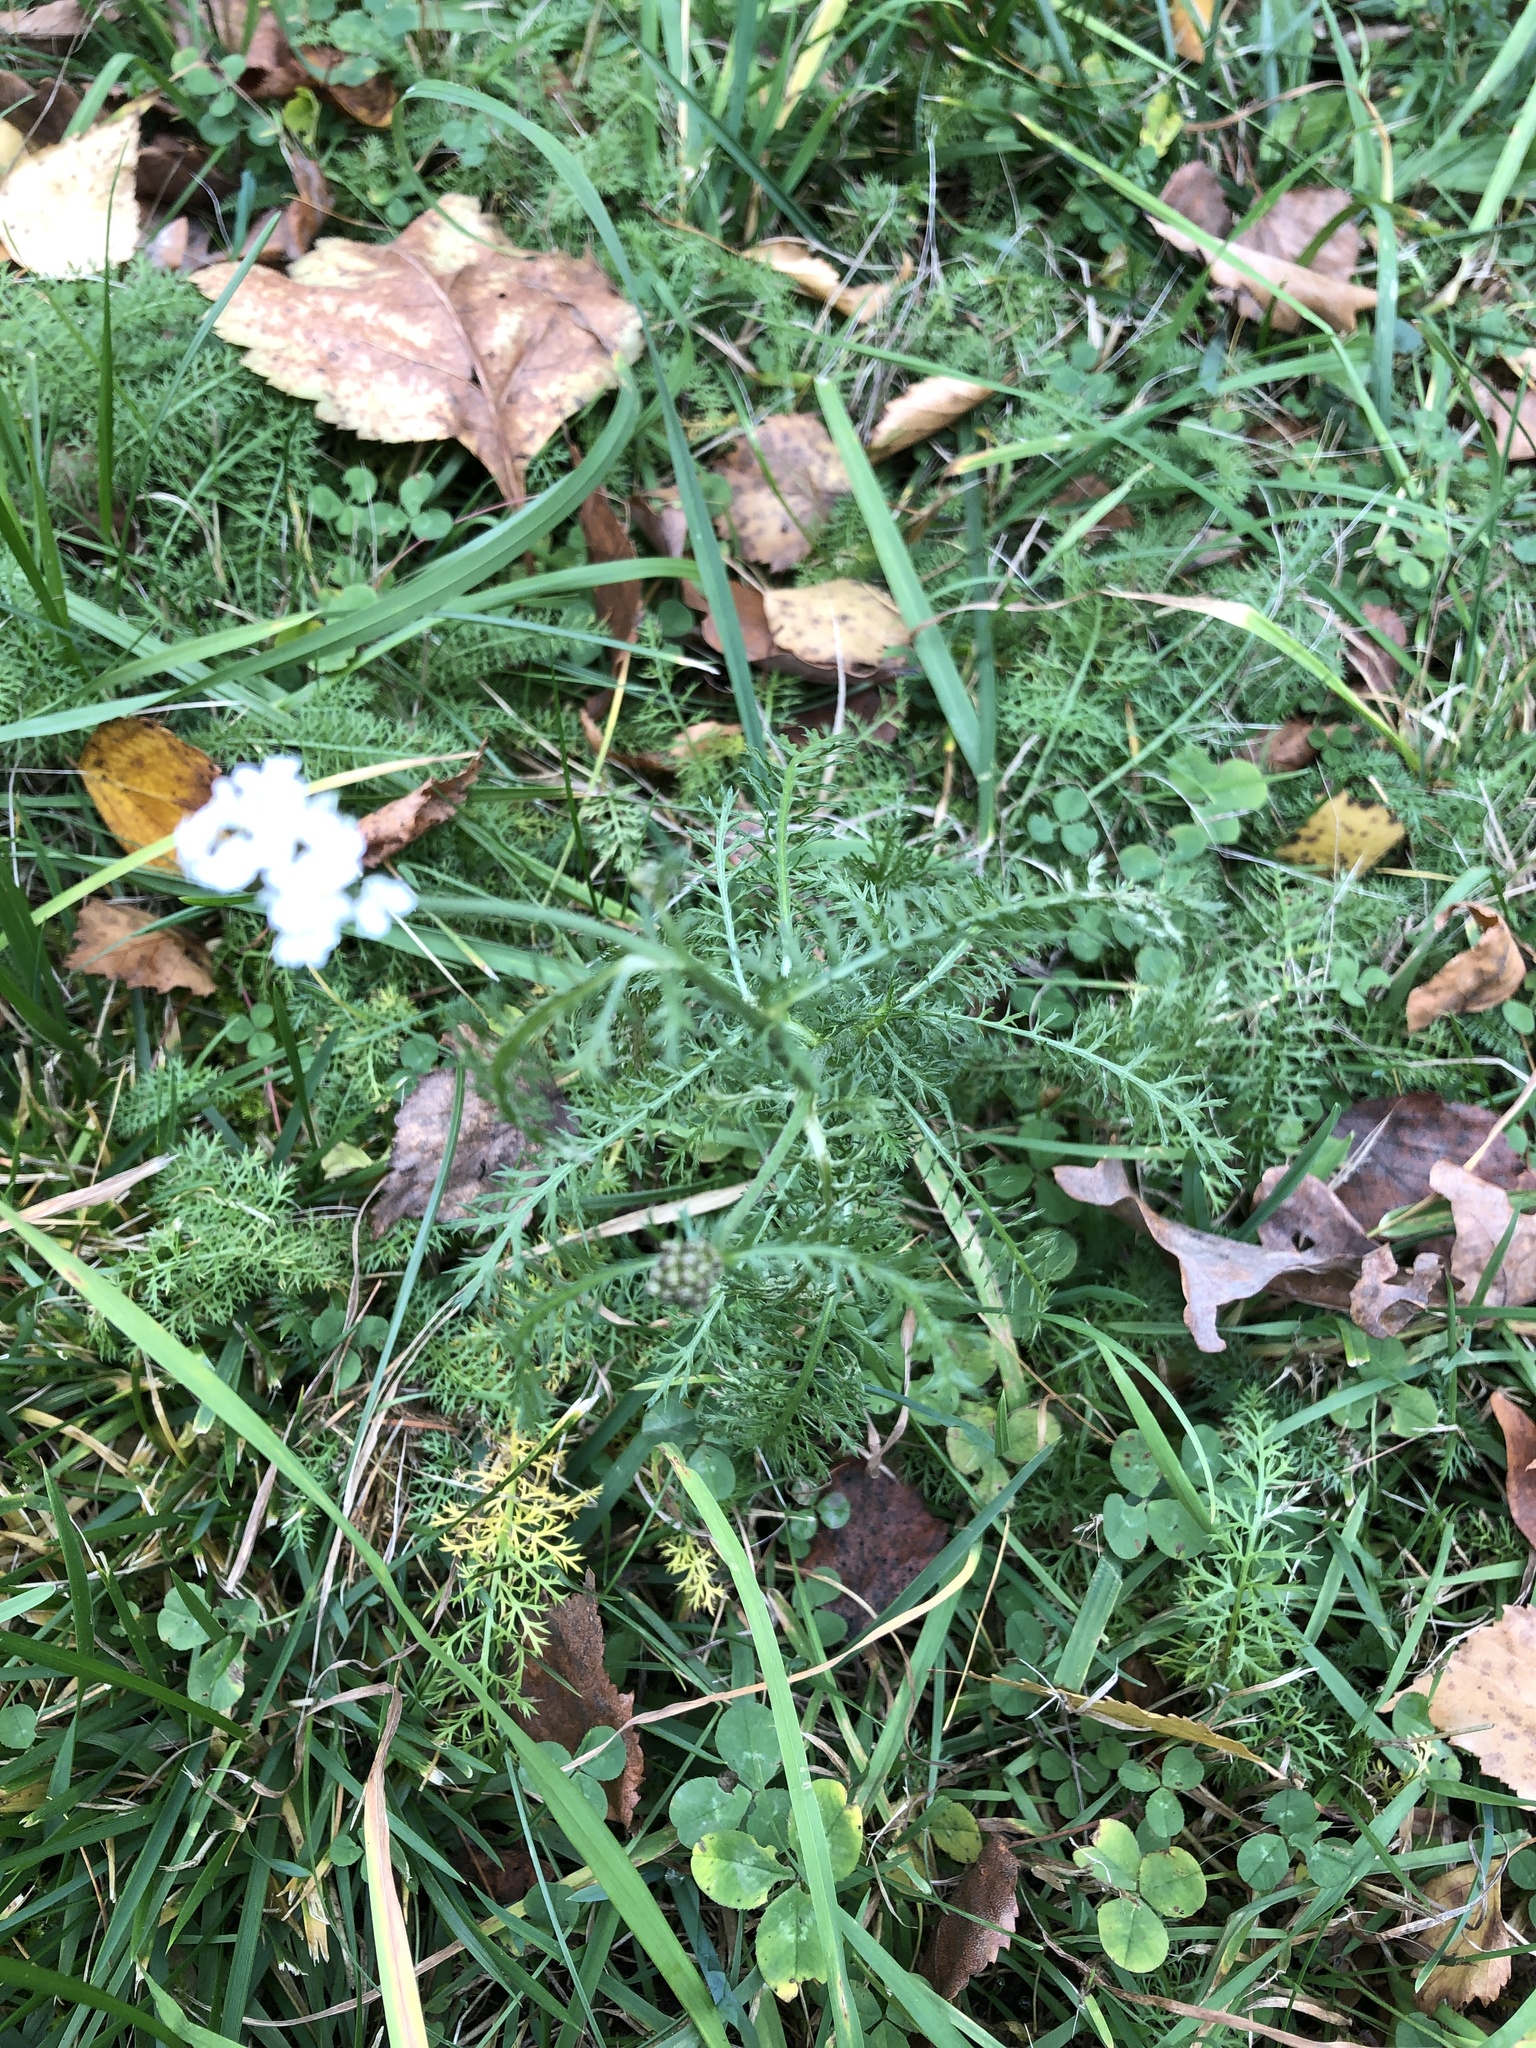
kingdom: Plantae
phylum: Tracheophyta
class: Magnoliopsida
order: Asterales
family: Asteraceae
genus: Achillea
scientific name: Achillea millefolium
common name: Yarrow
